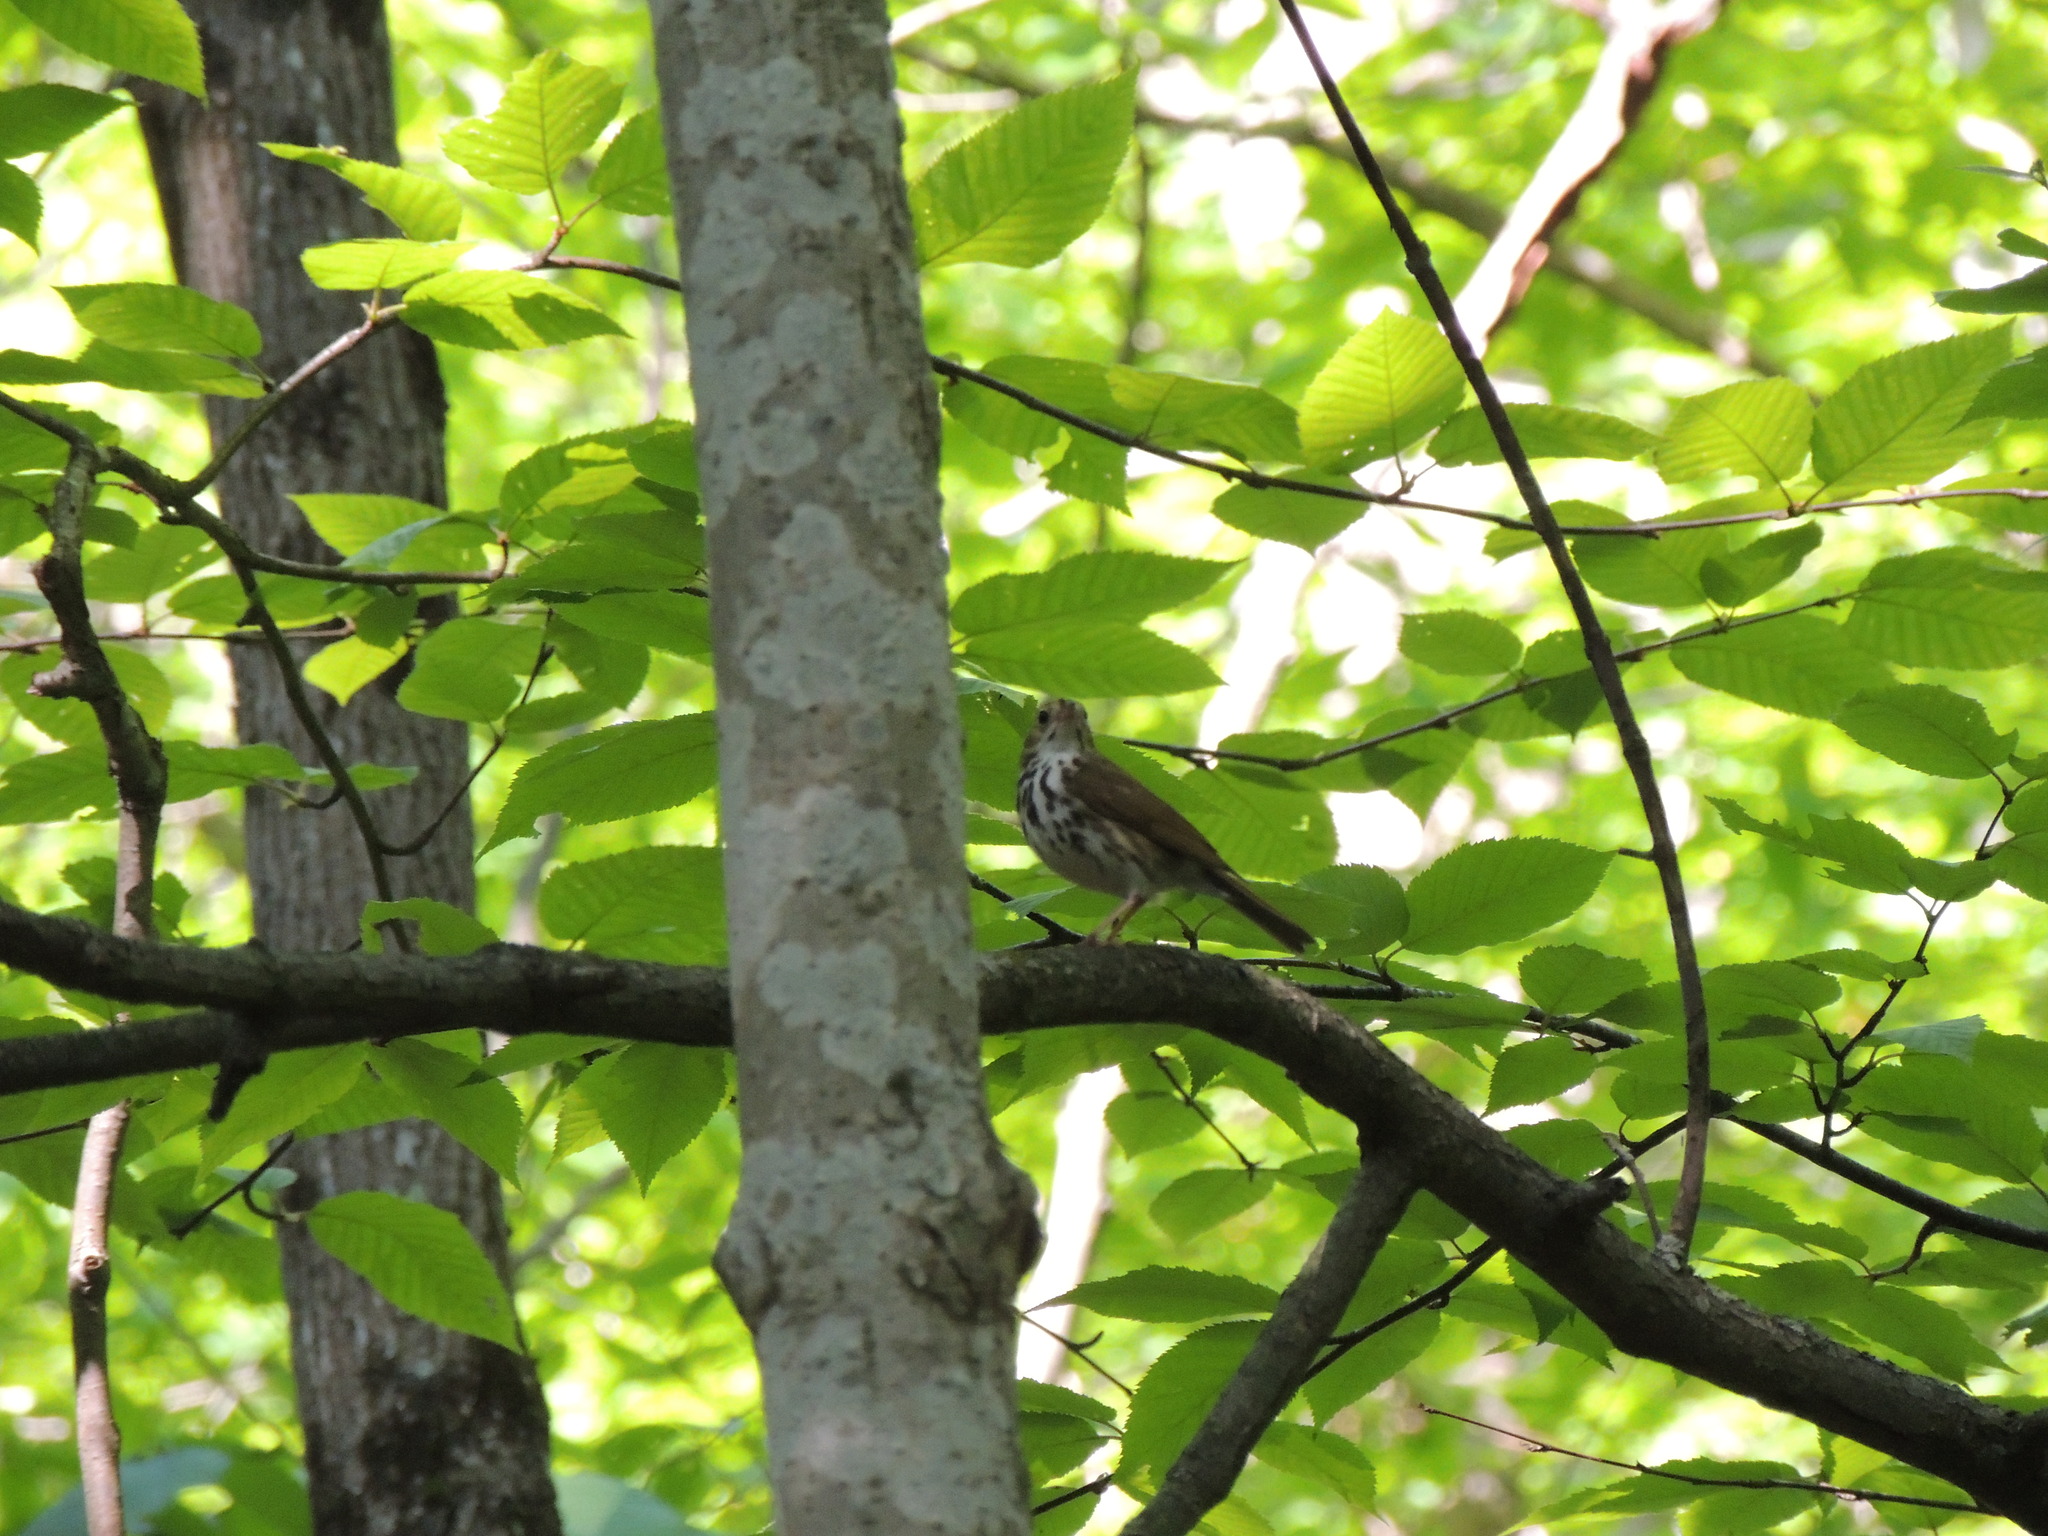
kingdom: Animalia
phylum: Chordata
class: Aves
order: Passeriformes
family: Parulidae
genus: Seiurus
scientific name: Seiurus aurocapilla
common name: Ovenbird
